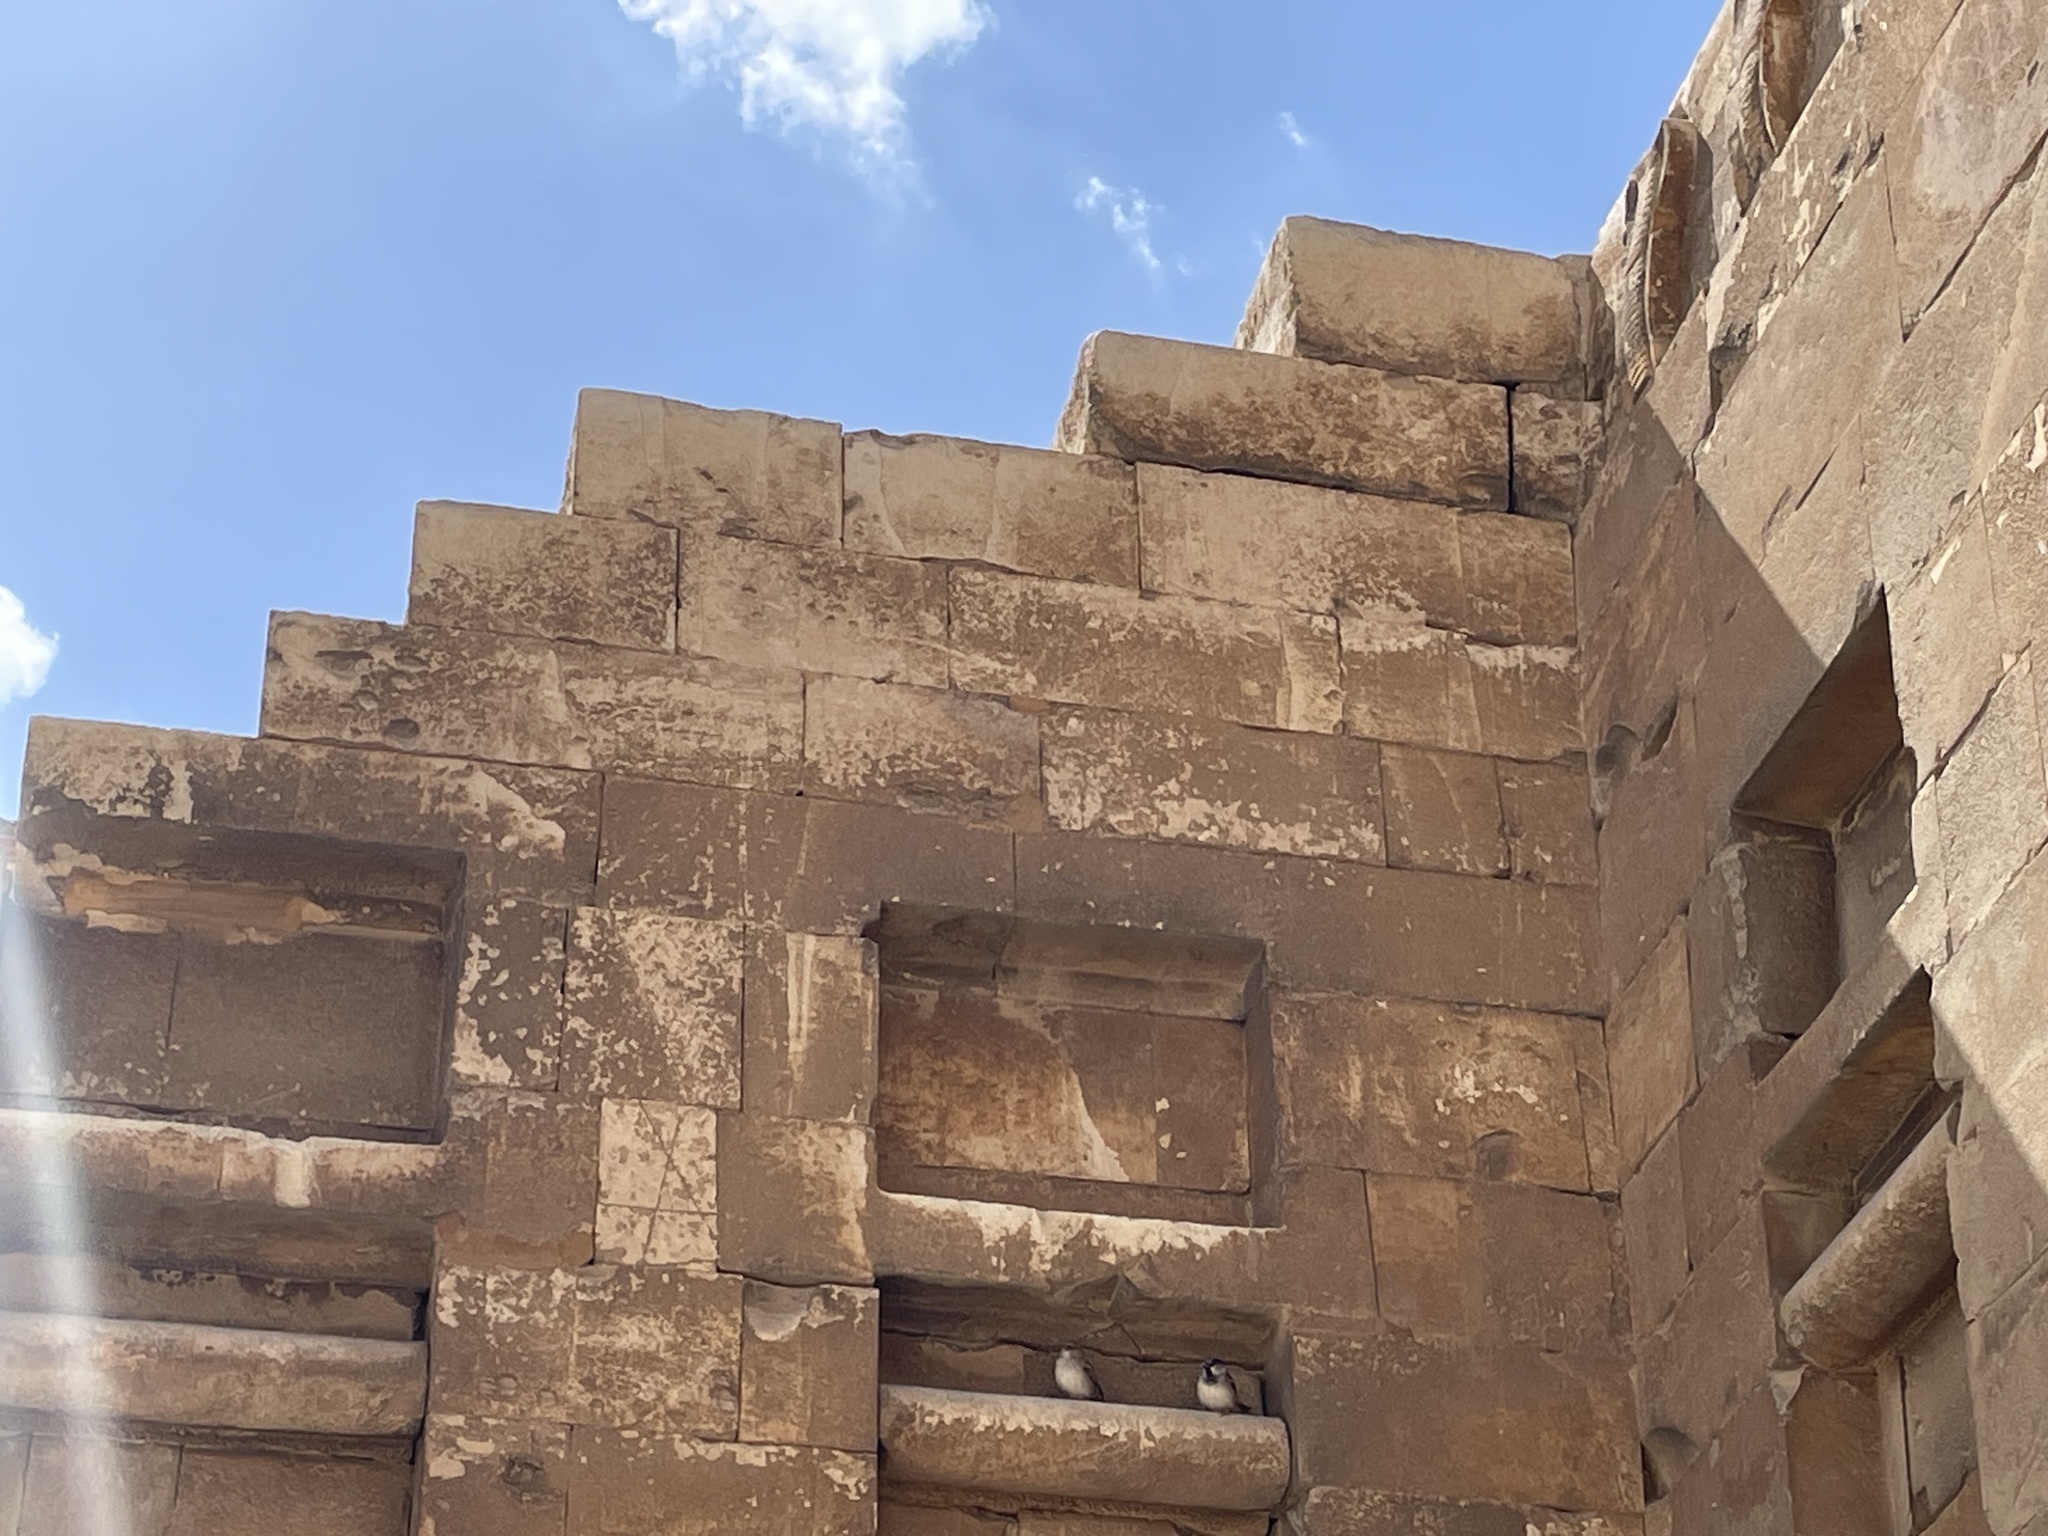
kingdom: Animalia
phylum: Chordata
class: Aves
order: Passeriformes
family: Passeridae
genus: Passer
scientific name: Passer domesticus
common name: House sparrow
